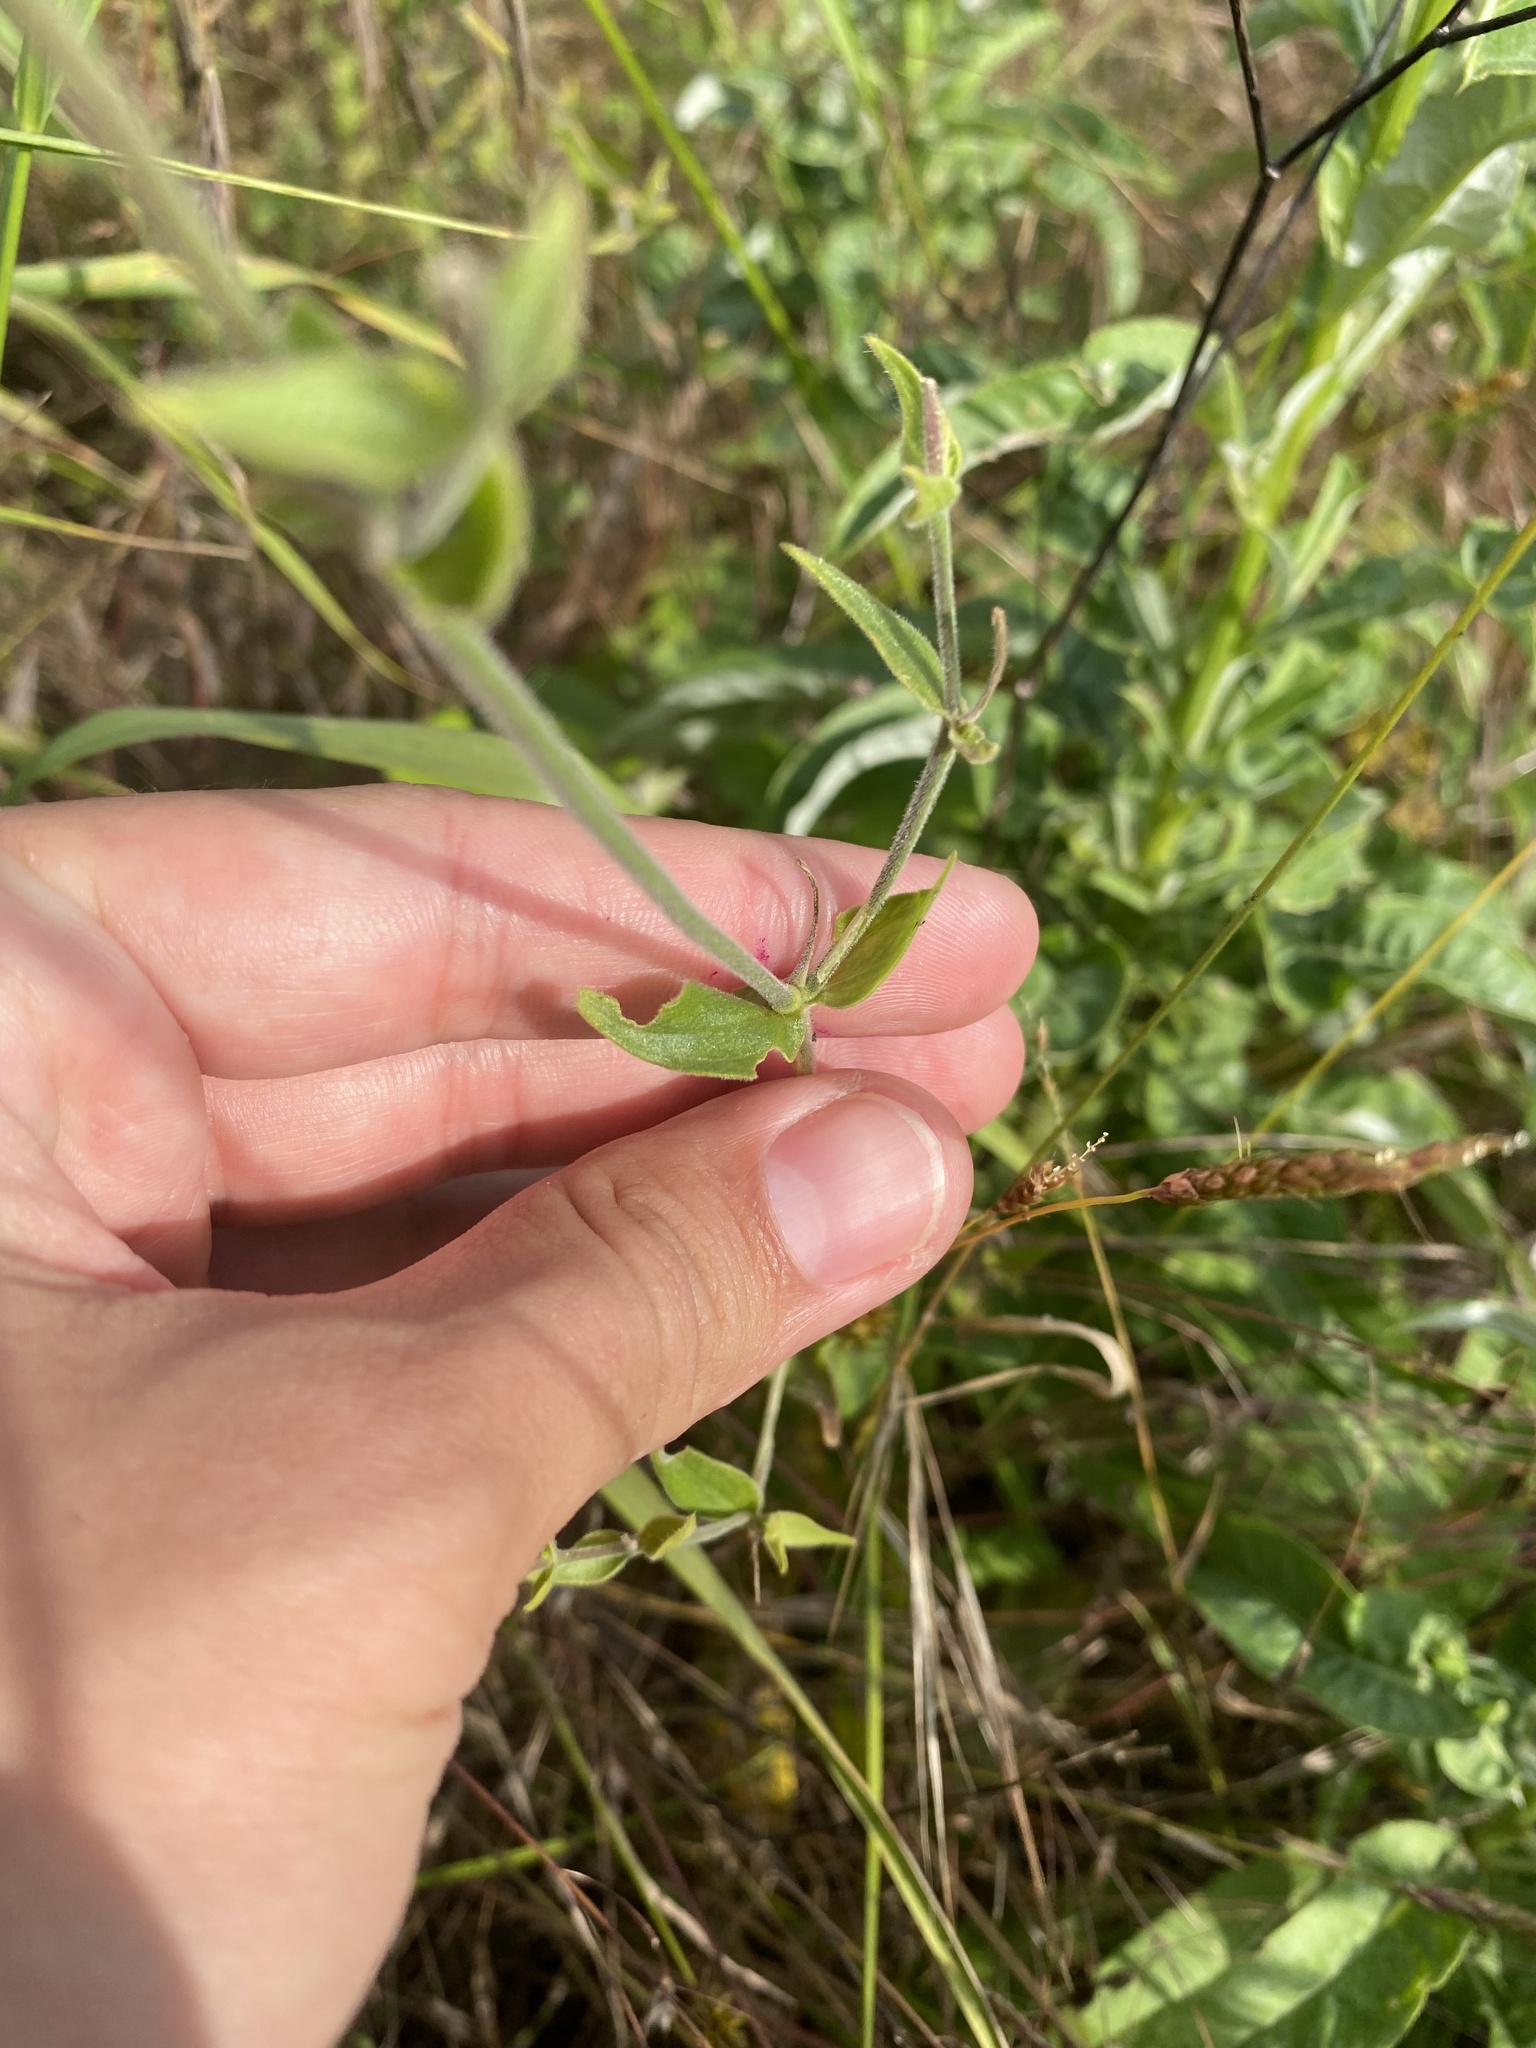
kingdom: Plantae
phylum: Tracheophyta
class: Magnoliopsida
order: Caryophyllales
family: Caryophyllaceae
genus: Silene
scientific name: Silene latifolia
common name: White campion
